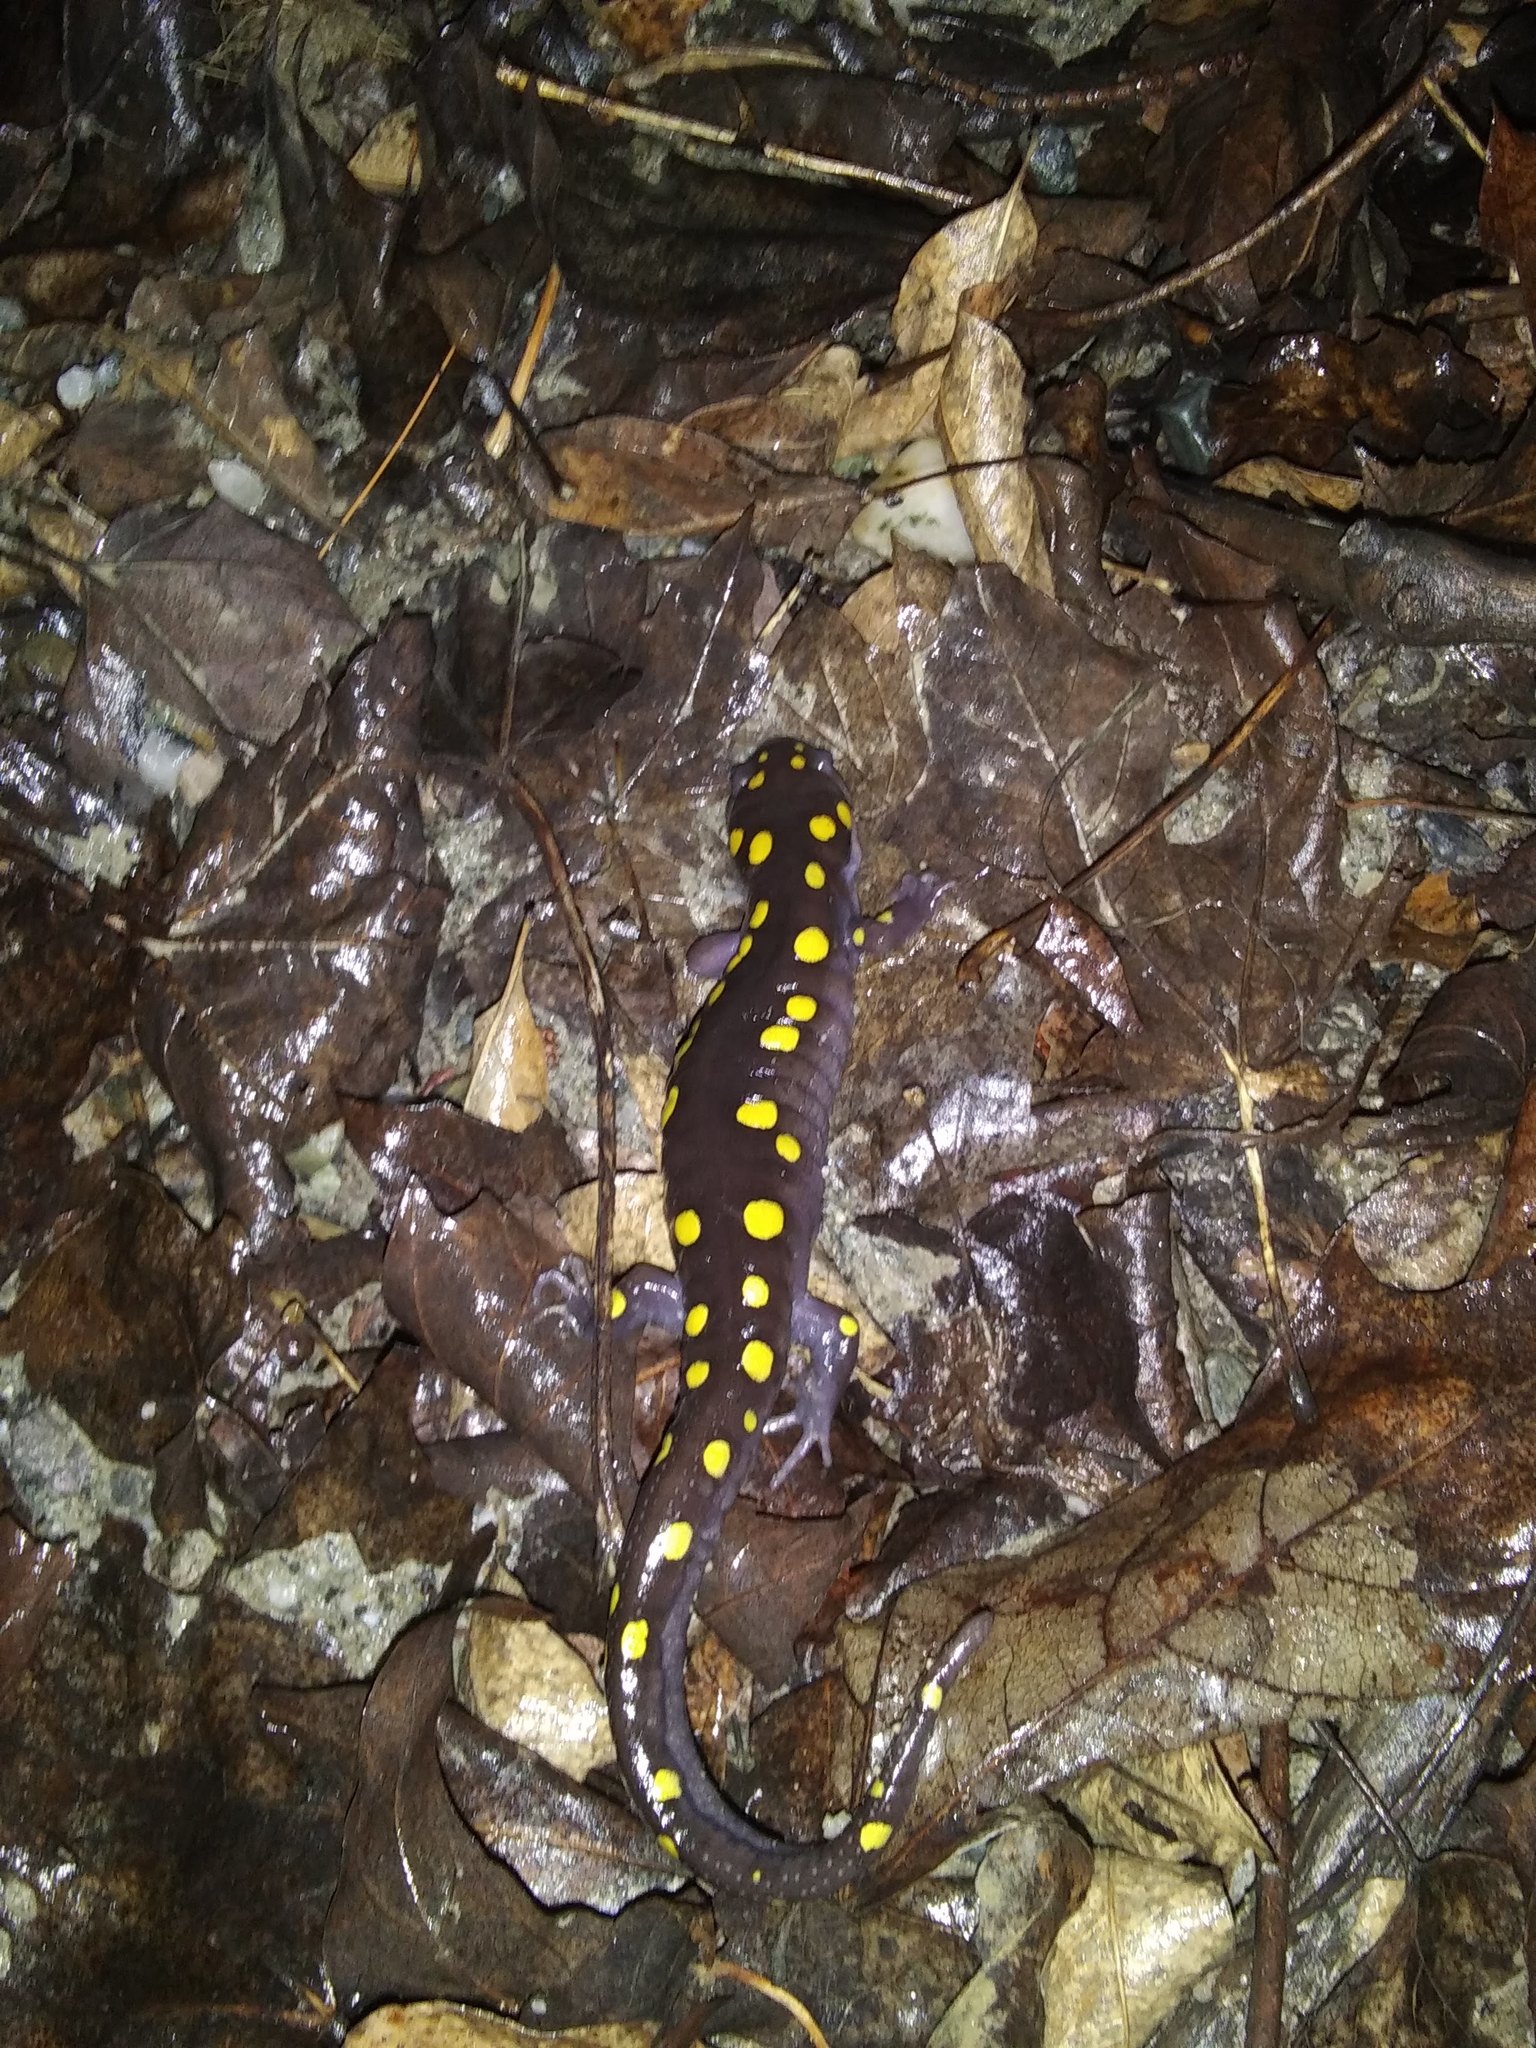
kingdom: Animalia
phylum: Chordata
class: Amphibia
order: Caudata
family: Ambystomatidae
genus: Ambystoma
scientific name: Ambystoma maculatum
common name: Spotted salamander
